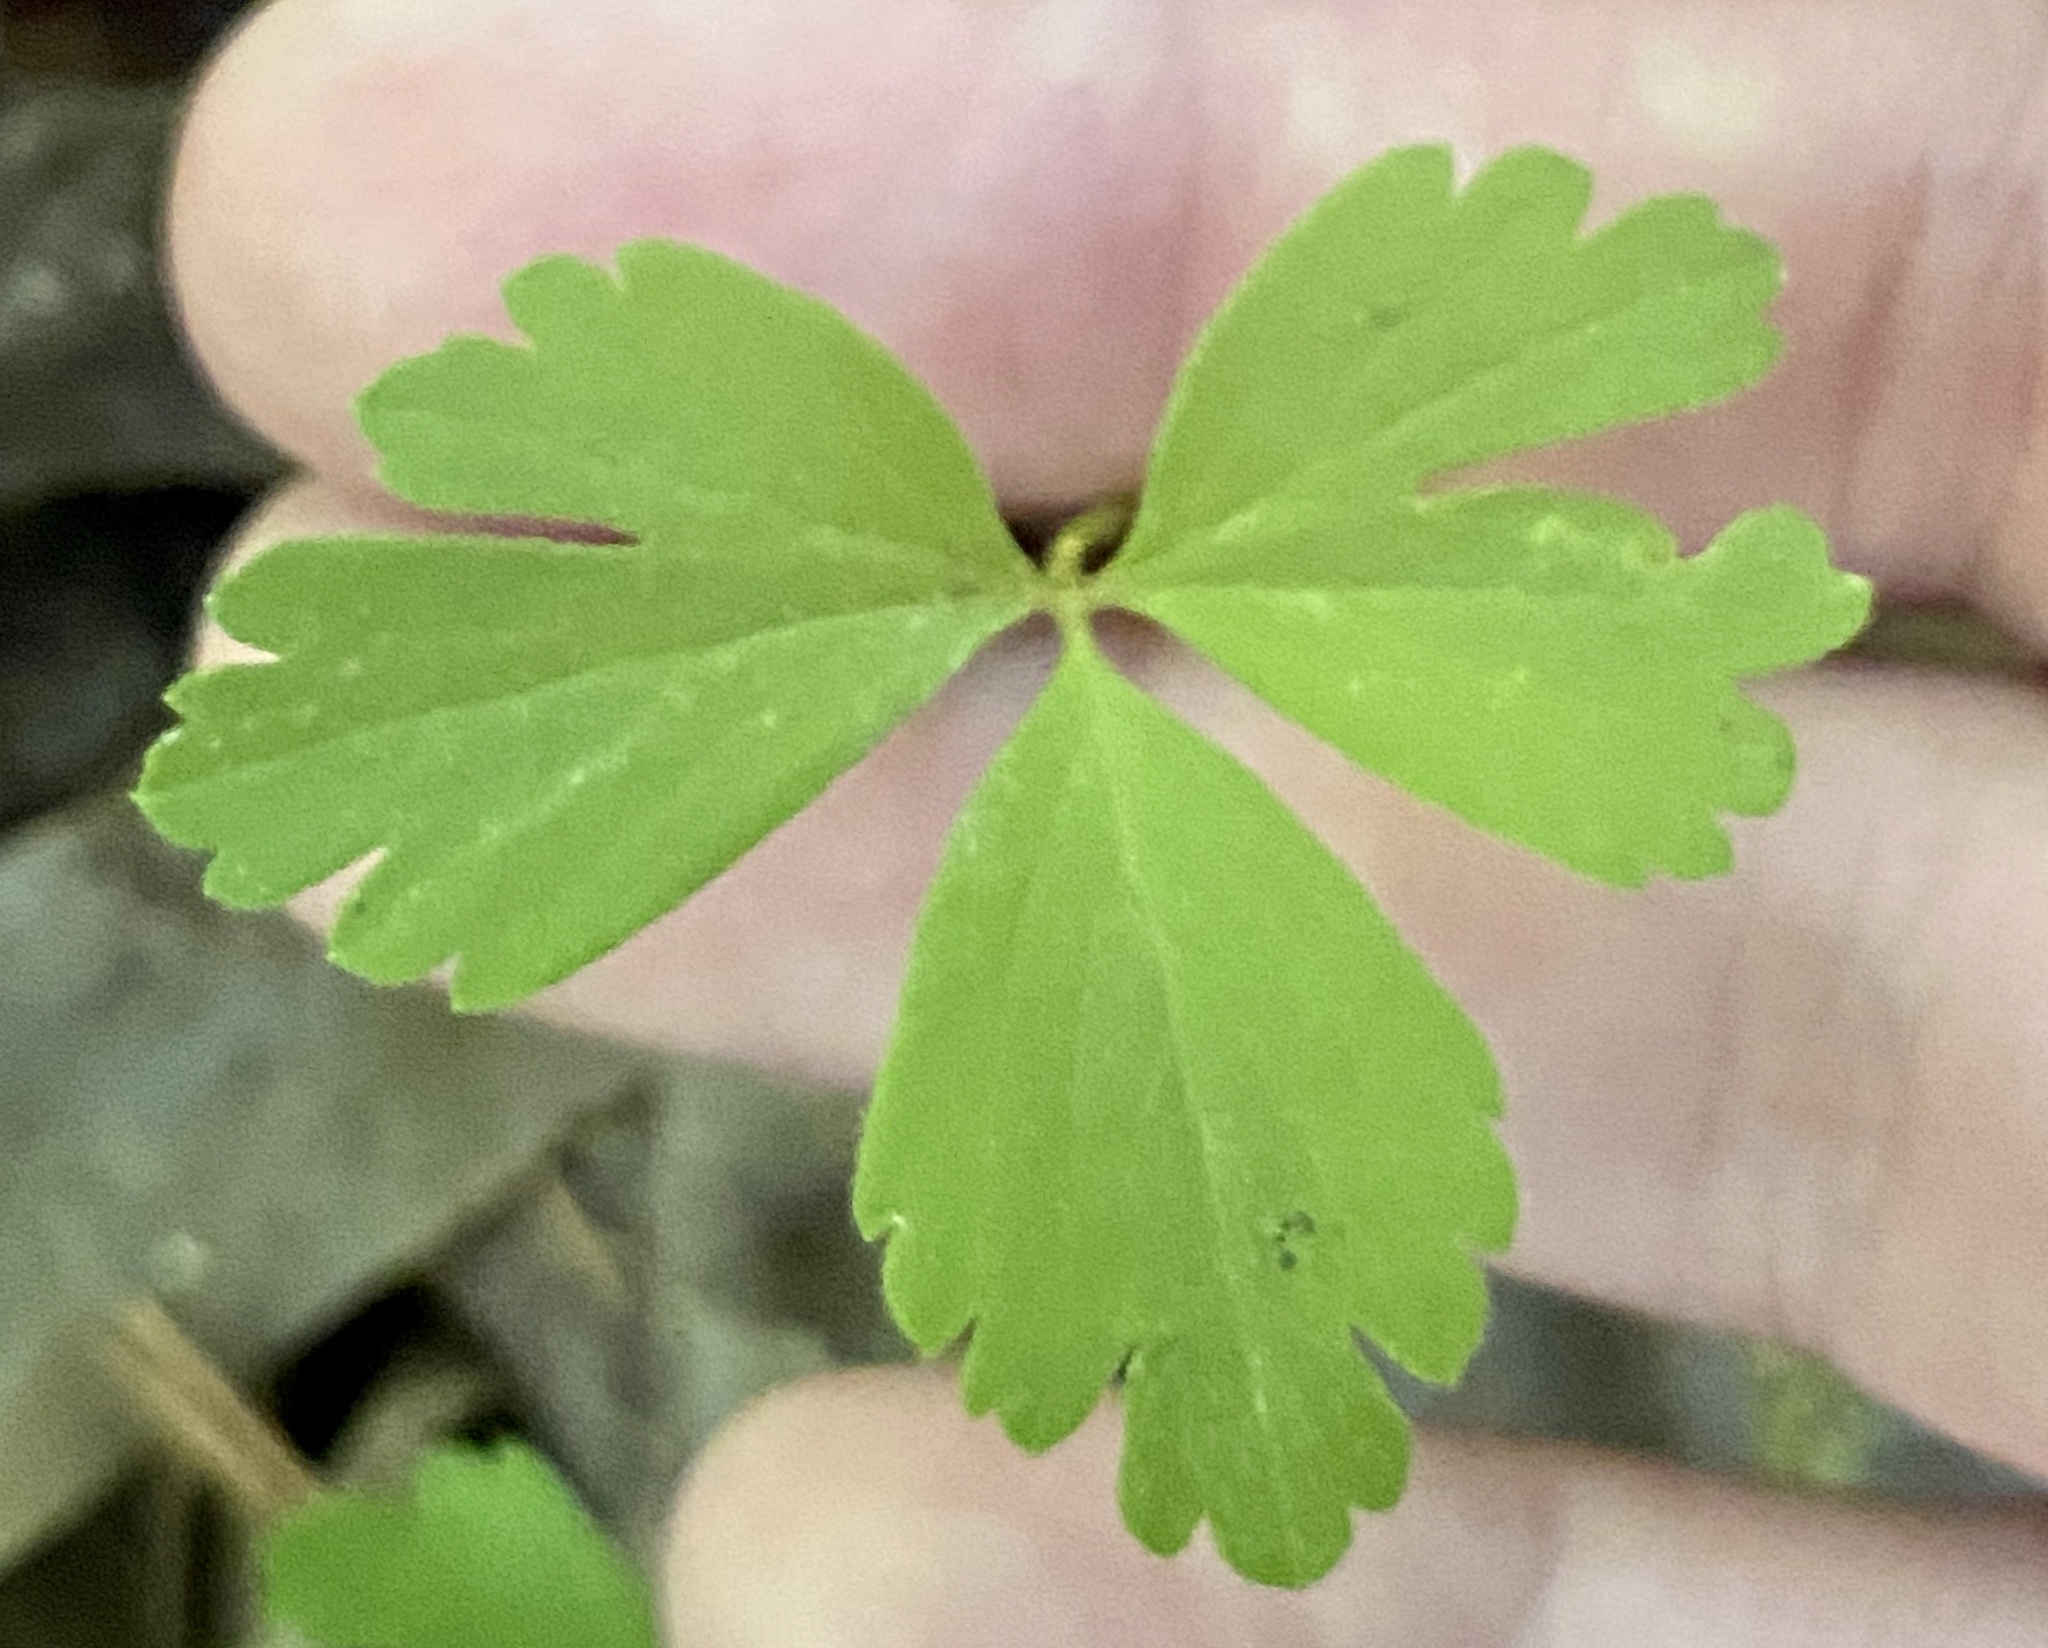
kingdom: Plantae
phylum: Tracheophyta
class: Magnoliopsida
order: Ranunculales
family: Ranunculaceae
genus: Anemone
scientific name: Anemone quinquefolia
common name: Wood anemone
